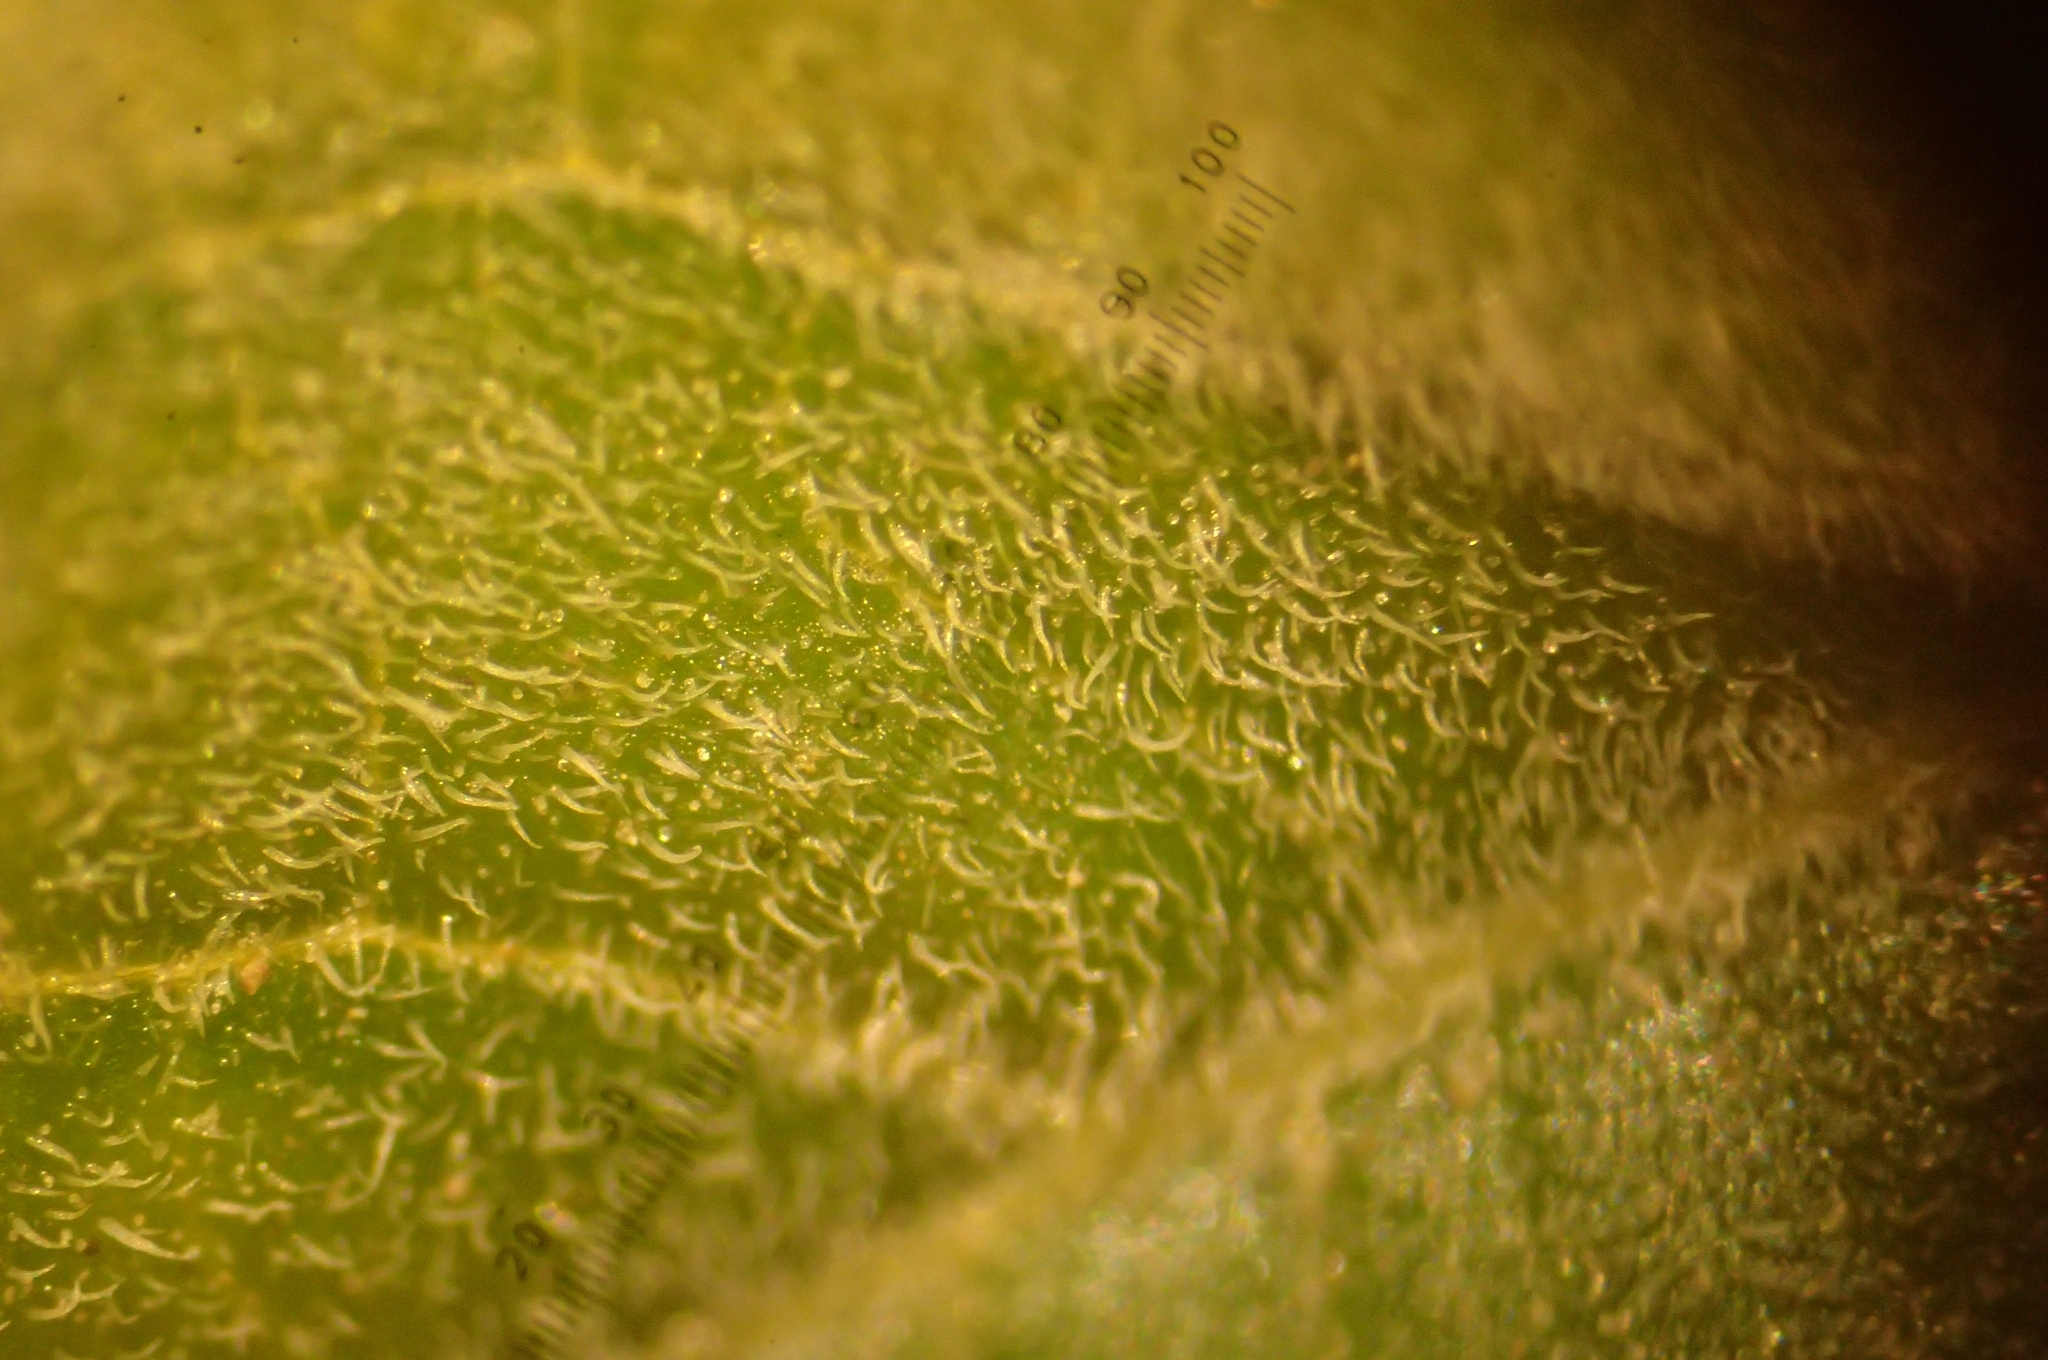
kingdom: Plantae
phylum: Tracheophyta
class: Magnoliopsida
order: Solanales
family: Solanaceae
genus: Datura
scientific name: Datura wrightii
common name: Sacred thorn-apple
